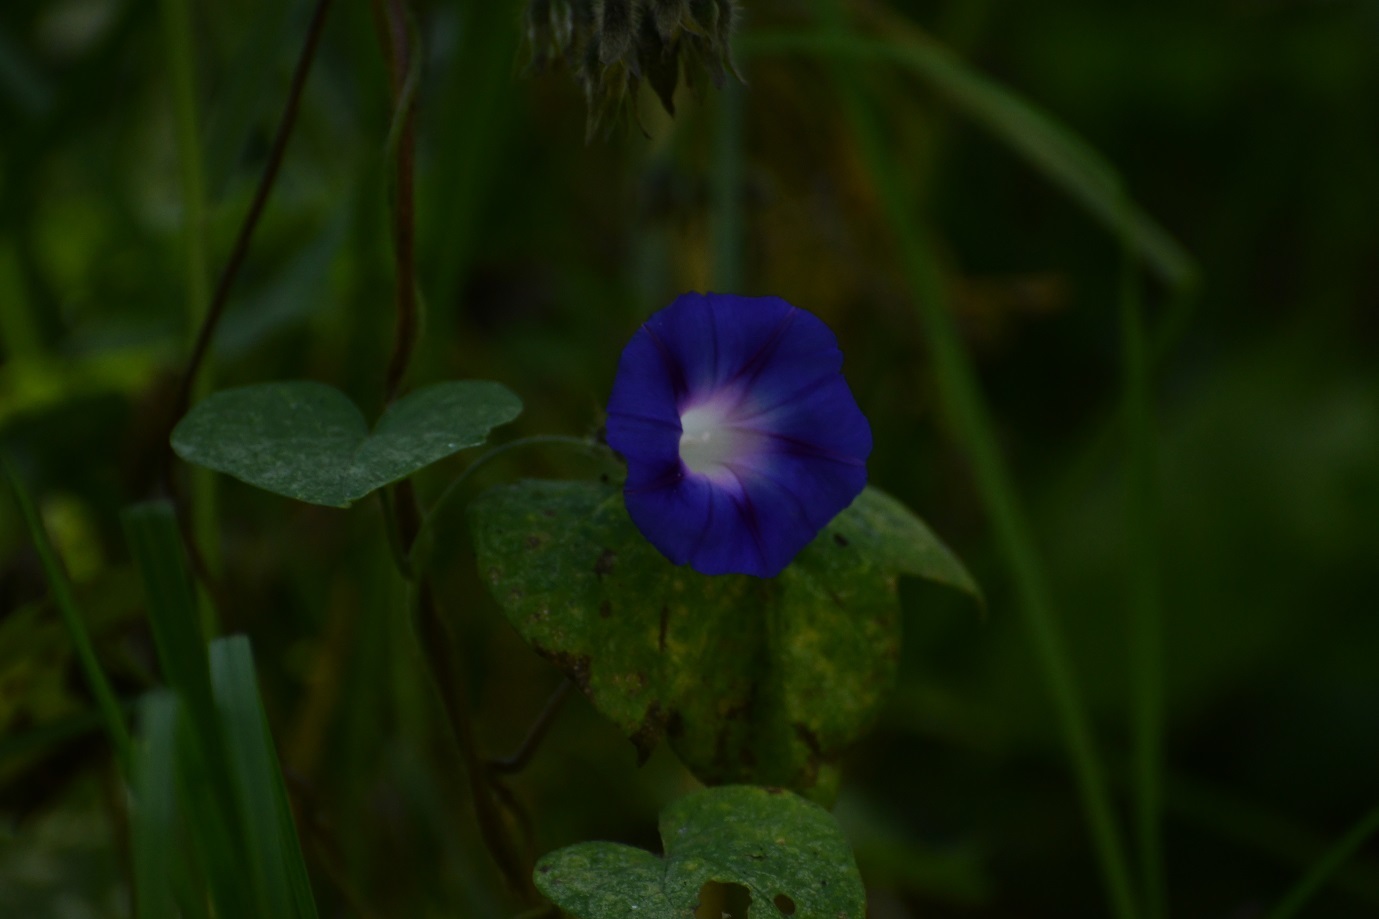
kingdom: Plantae
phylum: Tracheophyta
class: Magnoliopsida
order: Solanales
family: Convolvulaceae
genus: Ipomoea
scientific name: Ipomoea purpurea
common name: Common morning-glory
